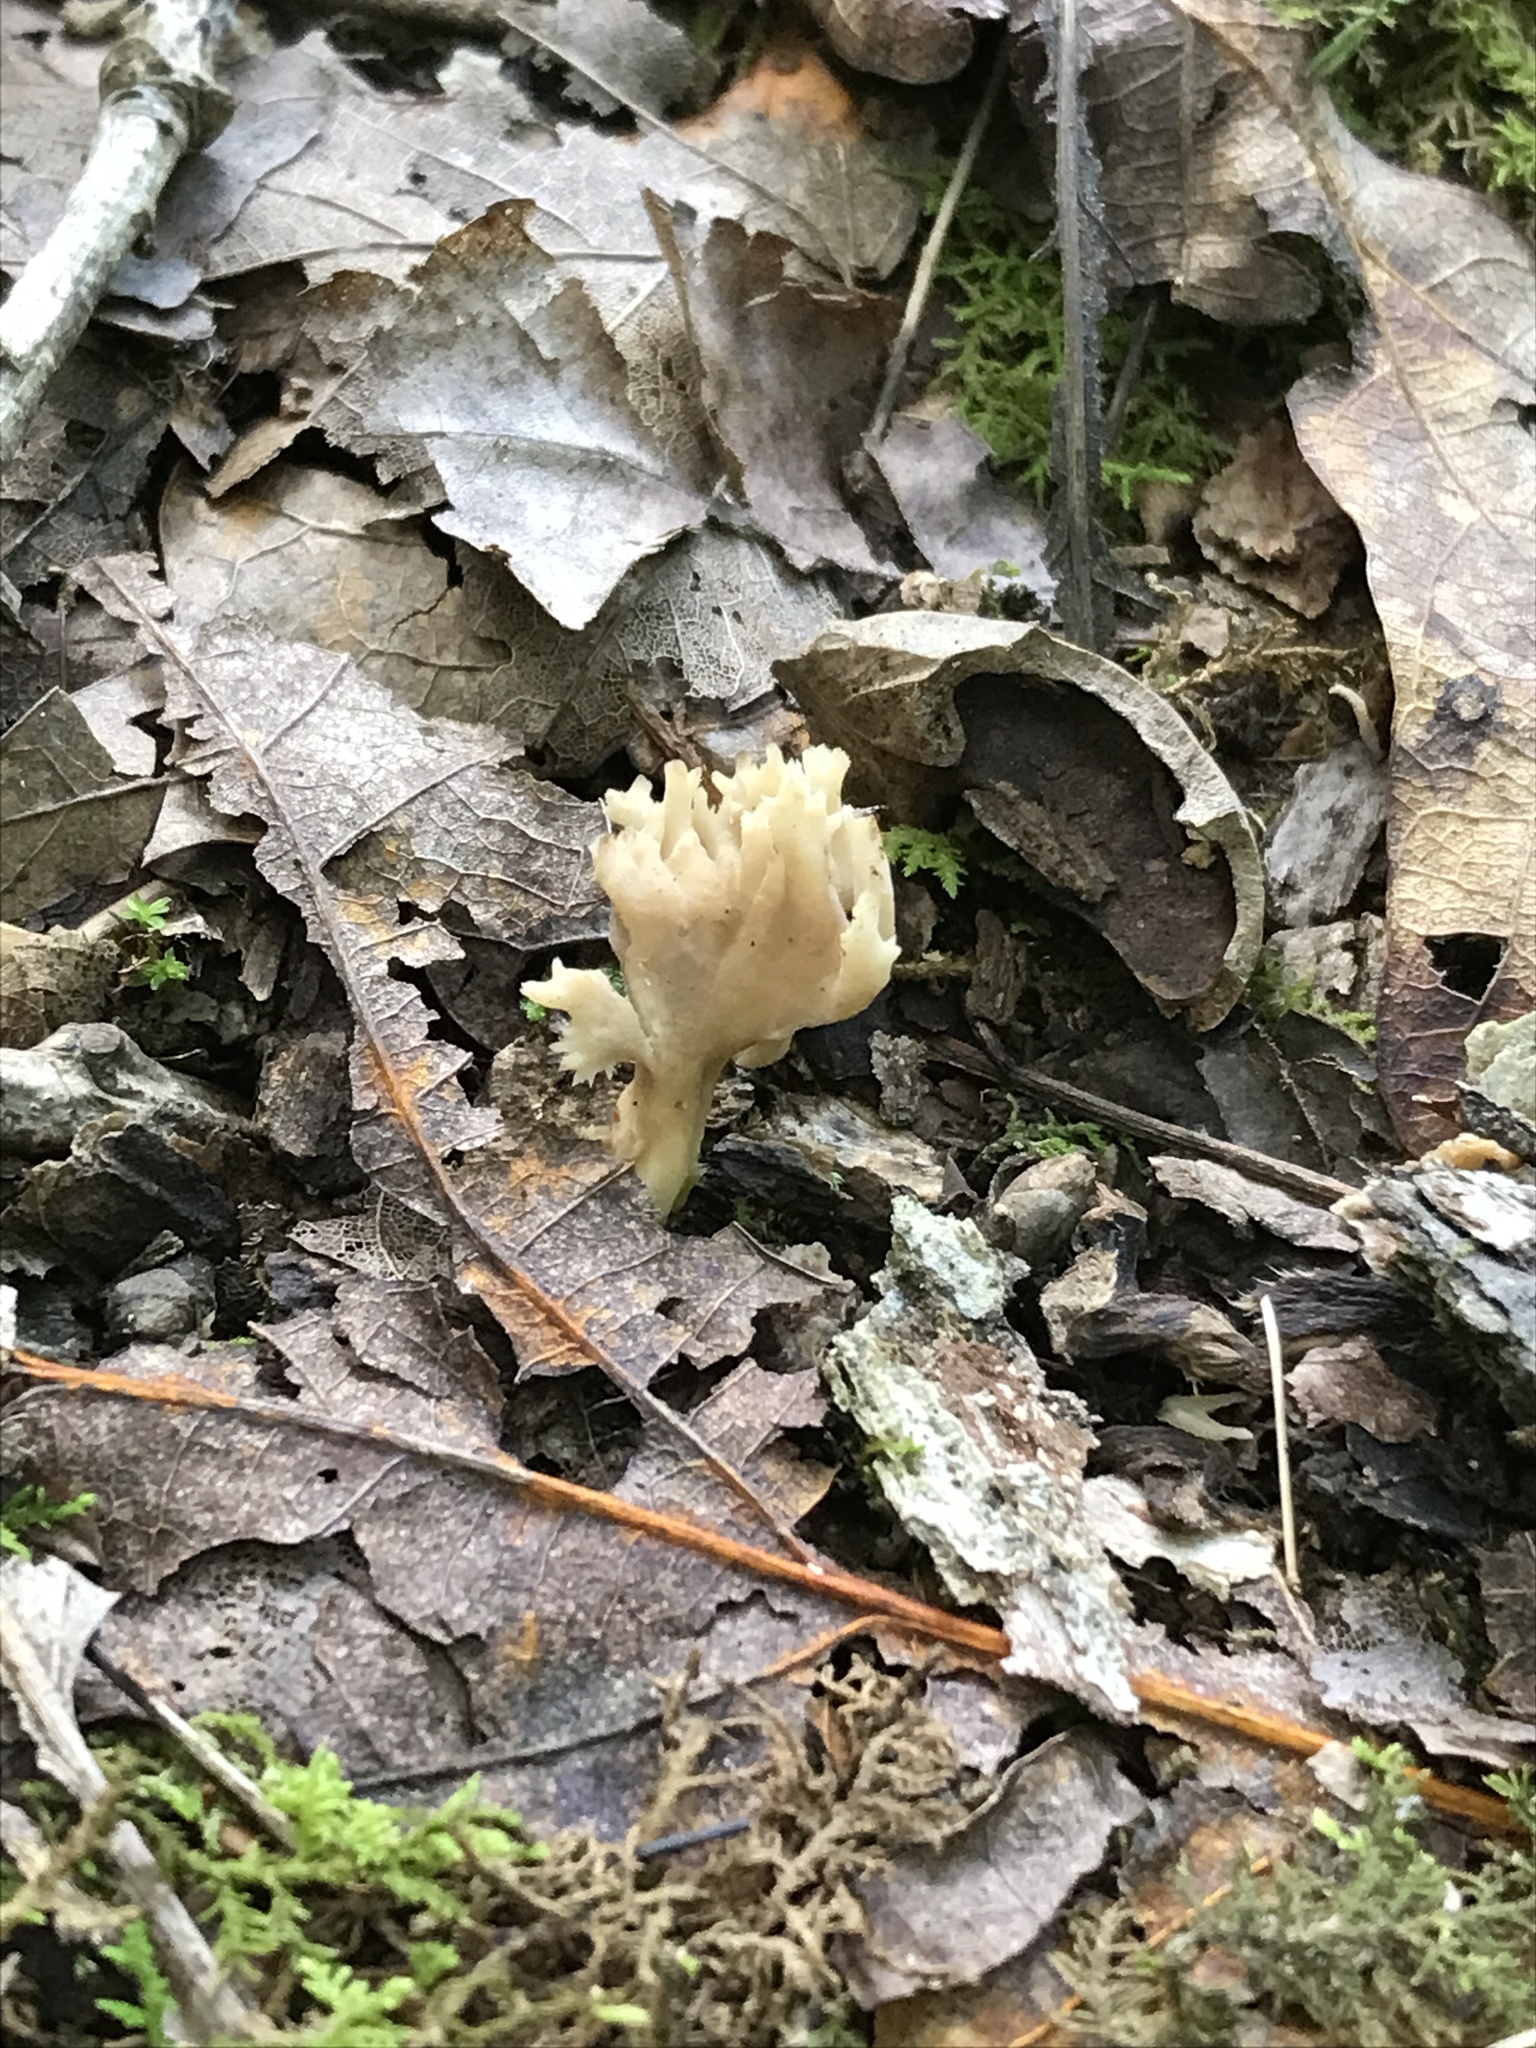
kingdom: Fungi
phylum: Basidiomycota
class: Agaricomycetes
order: Cantharellales
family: Hydnaceae
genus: Clavulina
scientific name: Clavulina coralloides
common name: Crested coral
